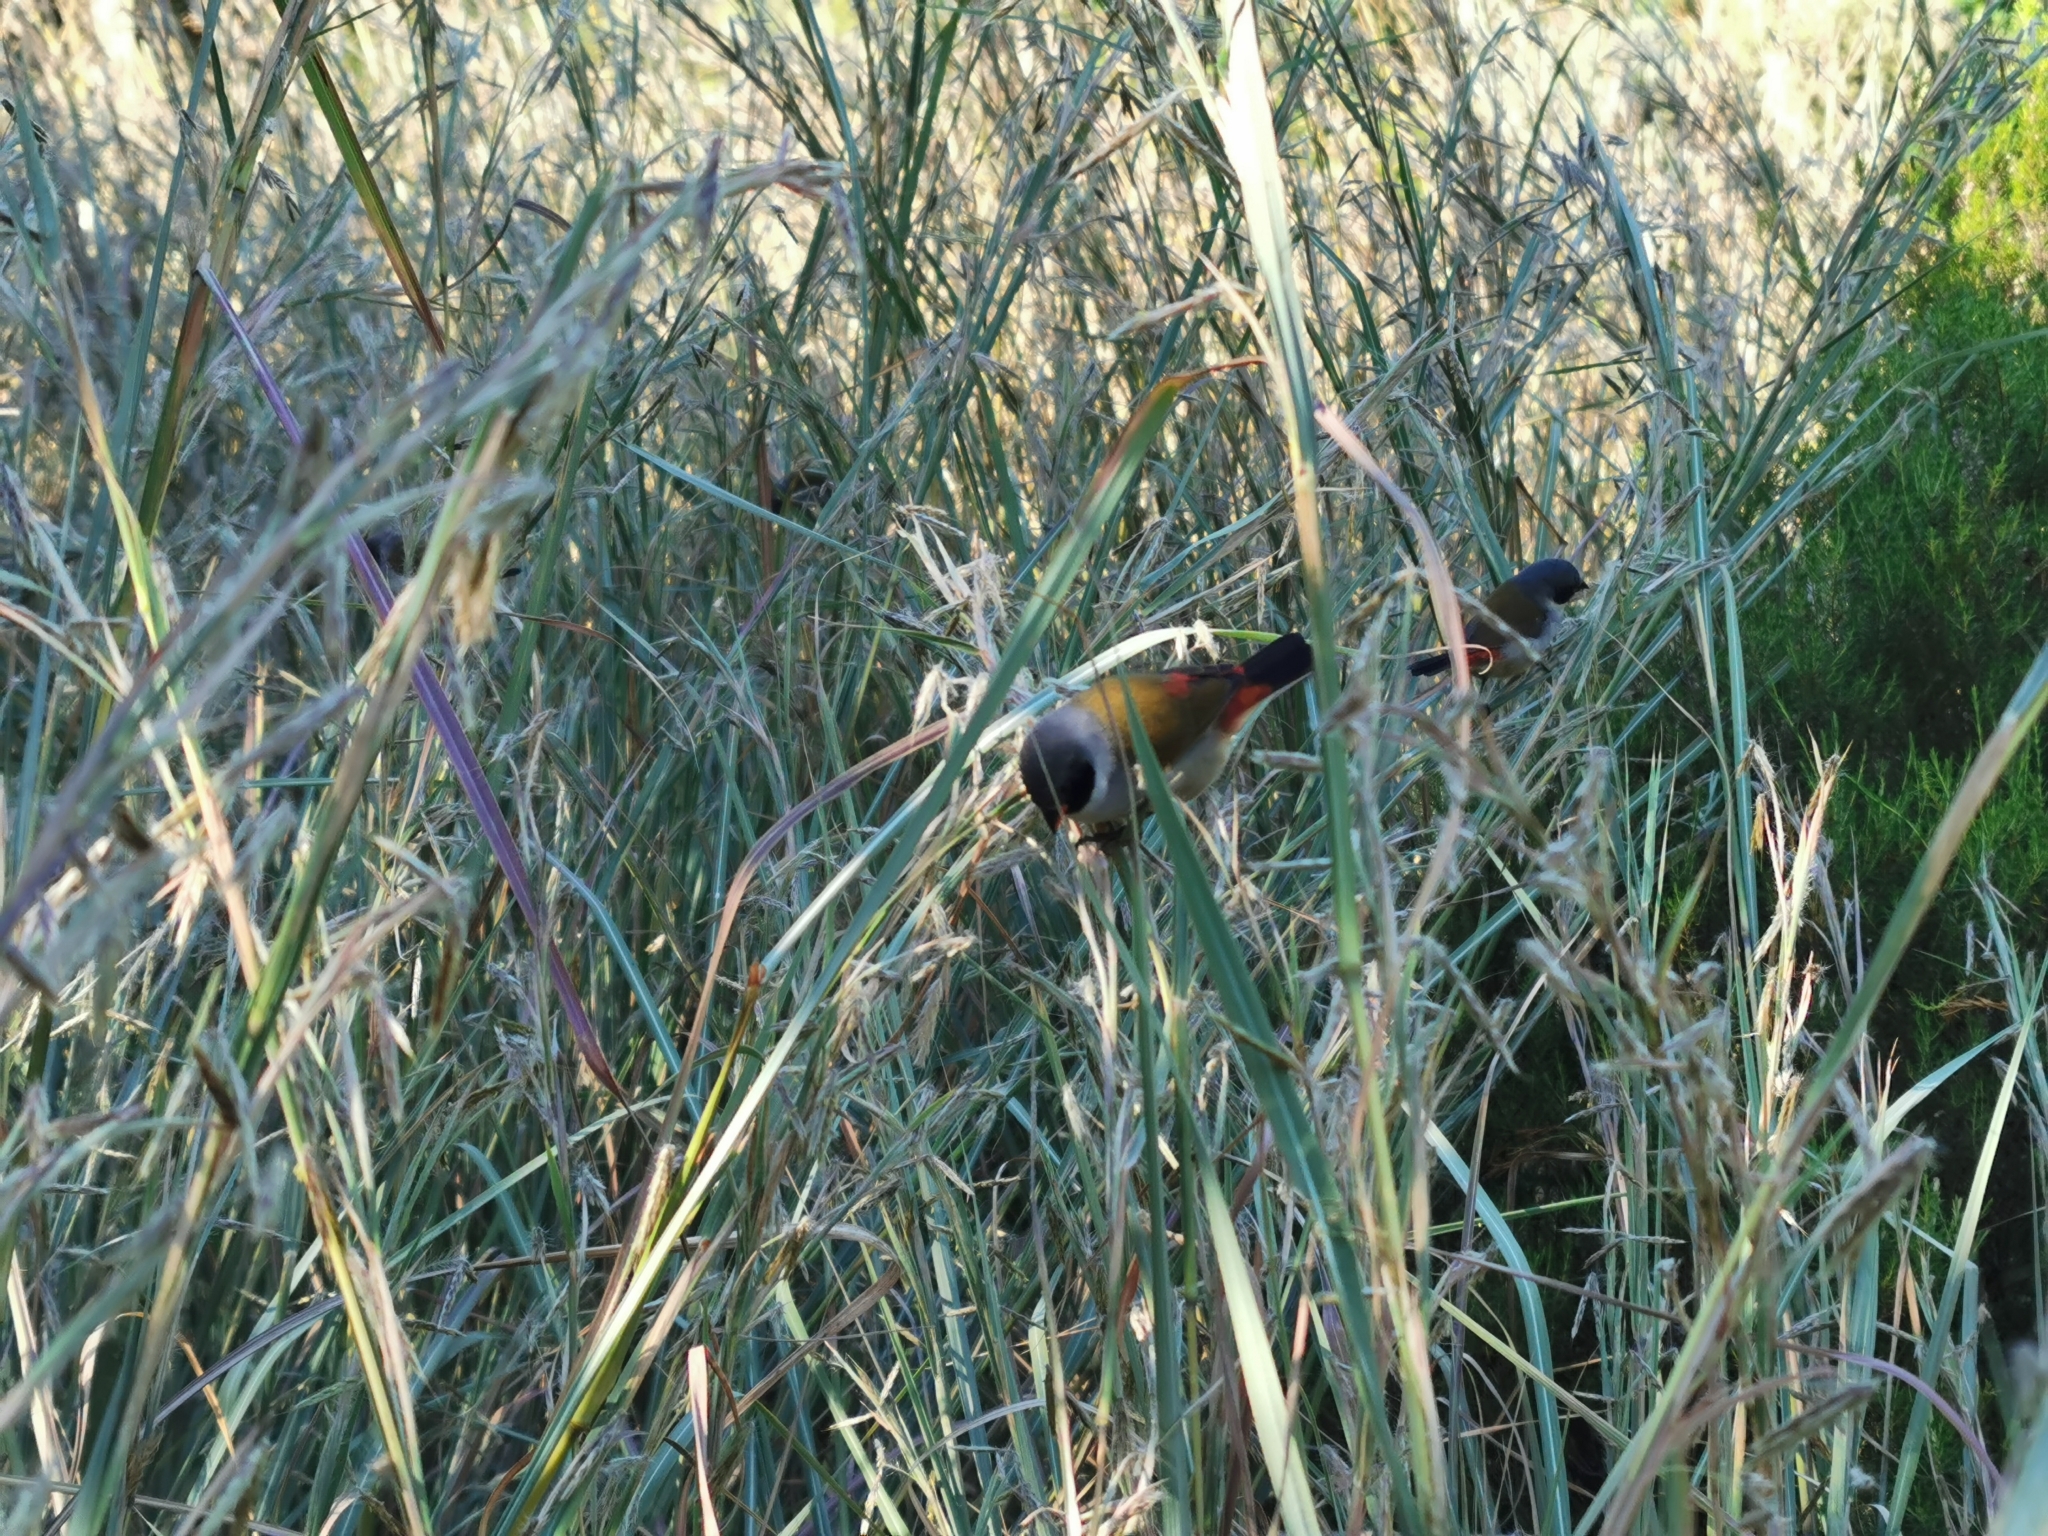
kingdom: Animalia
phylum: Chordata
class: Aves
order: Passeriformes
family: Estrildidae
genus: Coccopygia
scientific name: Coccopygia melanotis
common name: Swee waxbill
